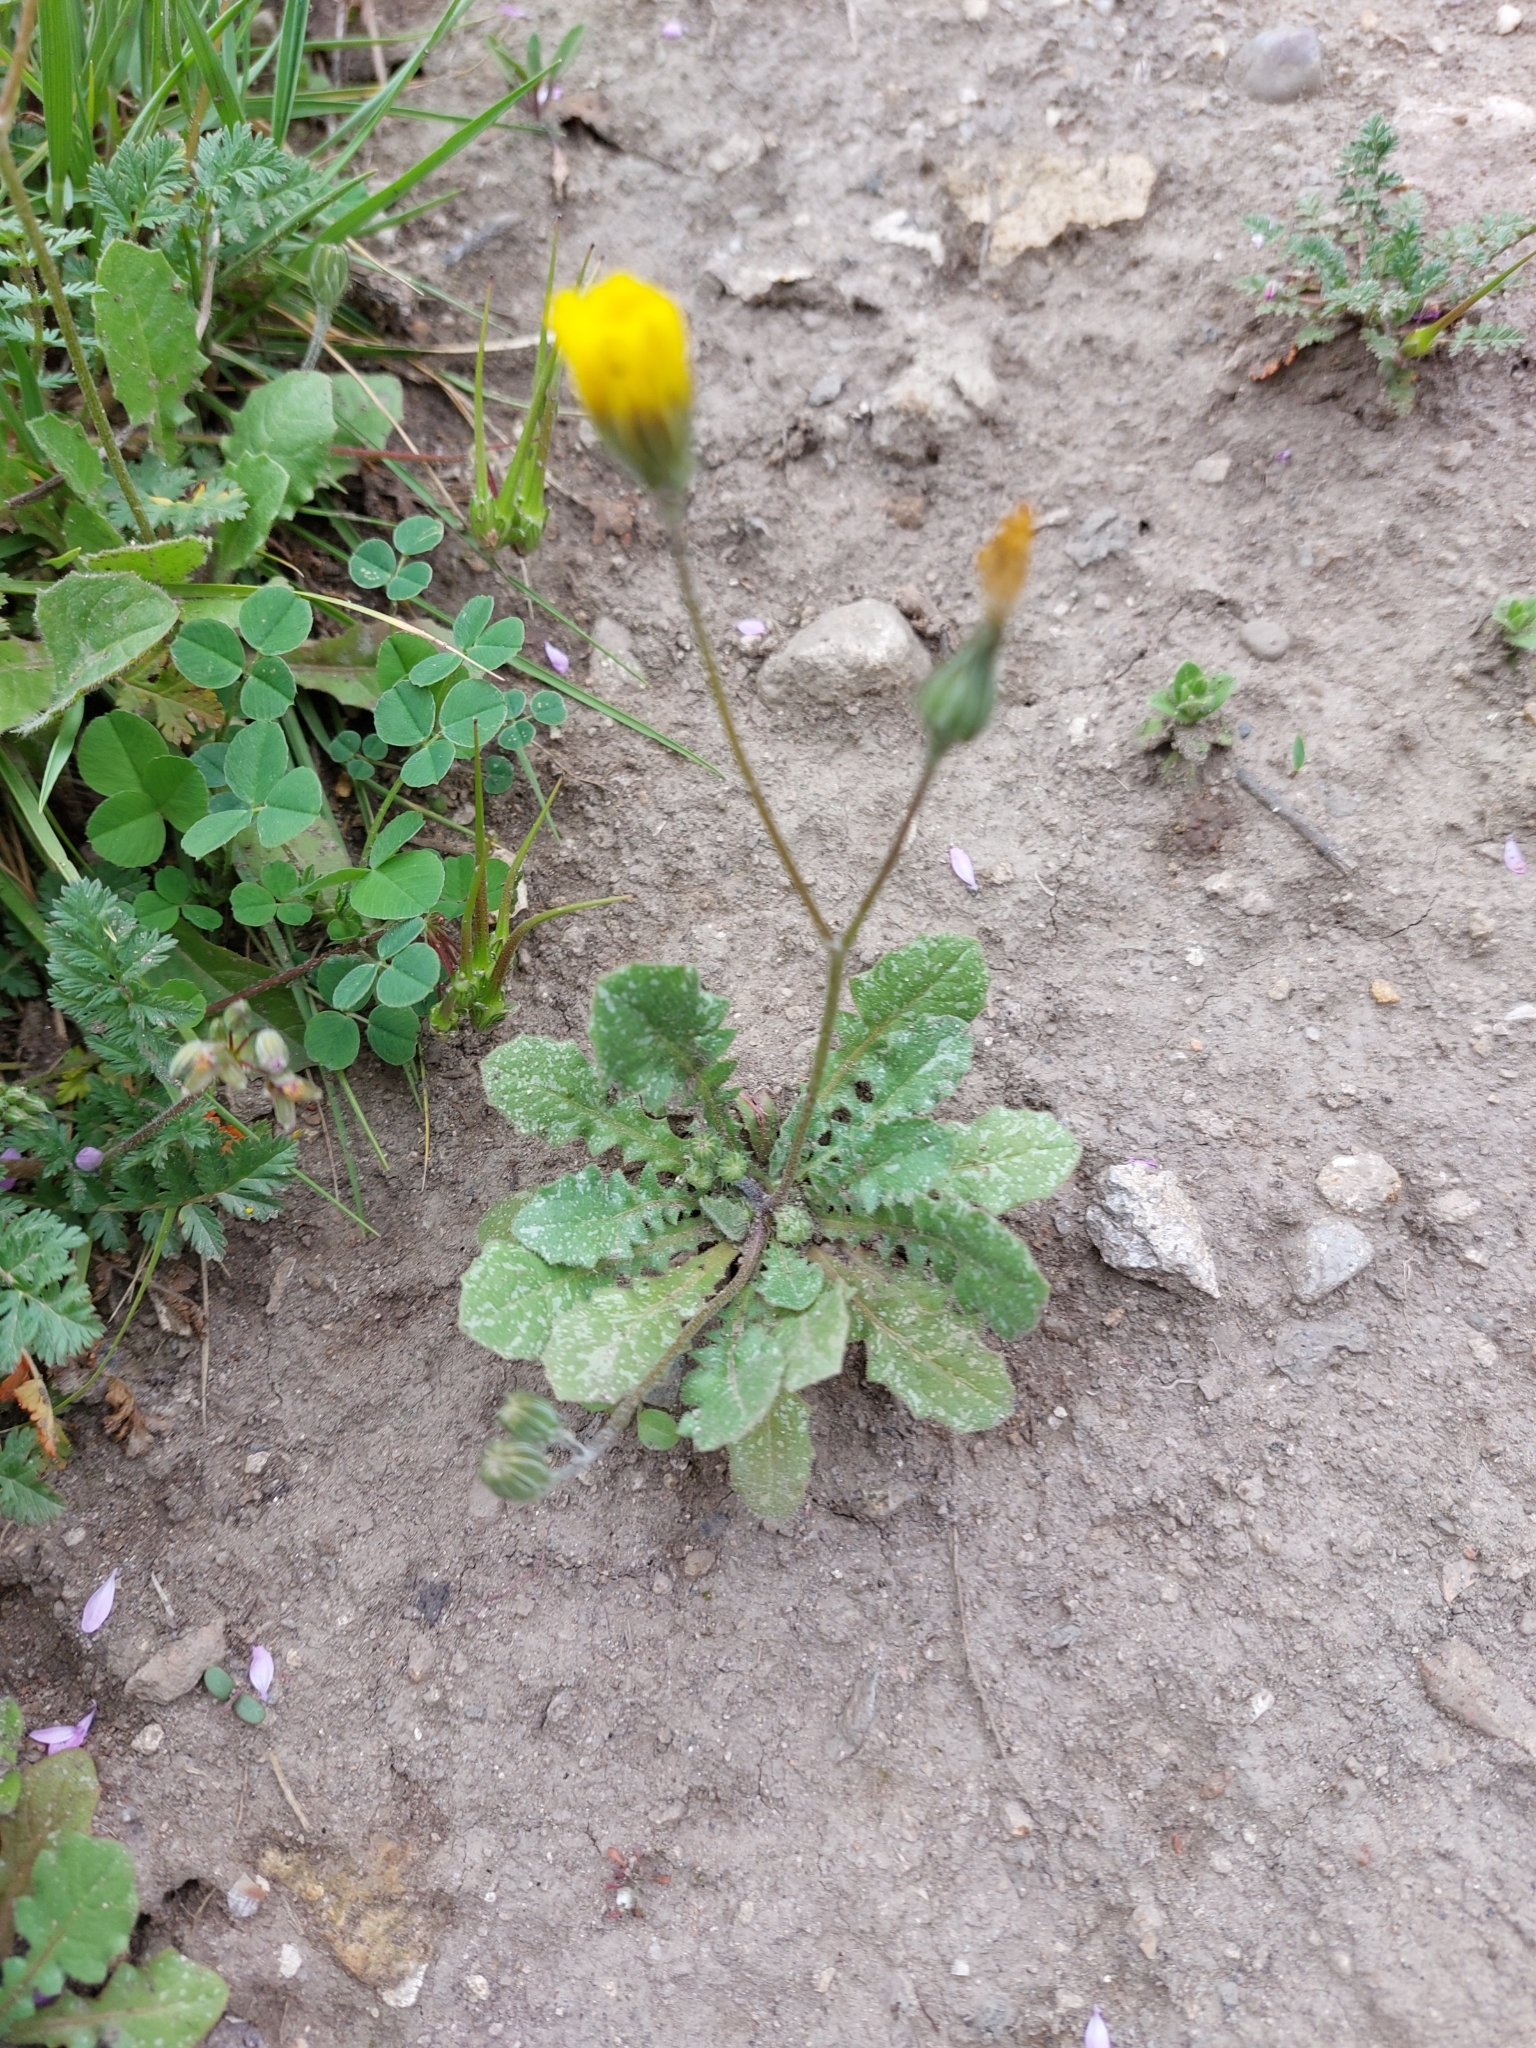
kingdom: Plantae
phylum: Tracheophyta
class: Magnoliopsida
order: Asterales
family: Asteraceae
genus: Crepis
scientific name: Crepis sancta
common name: Hawk's-beard
